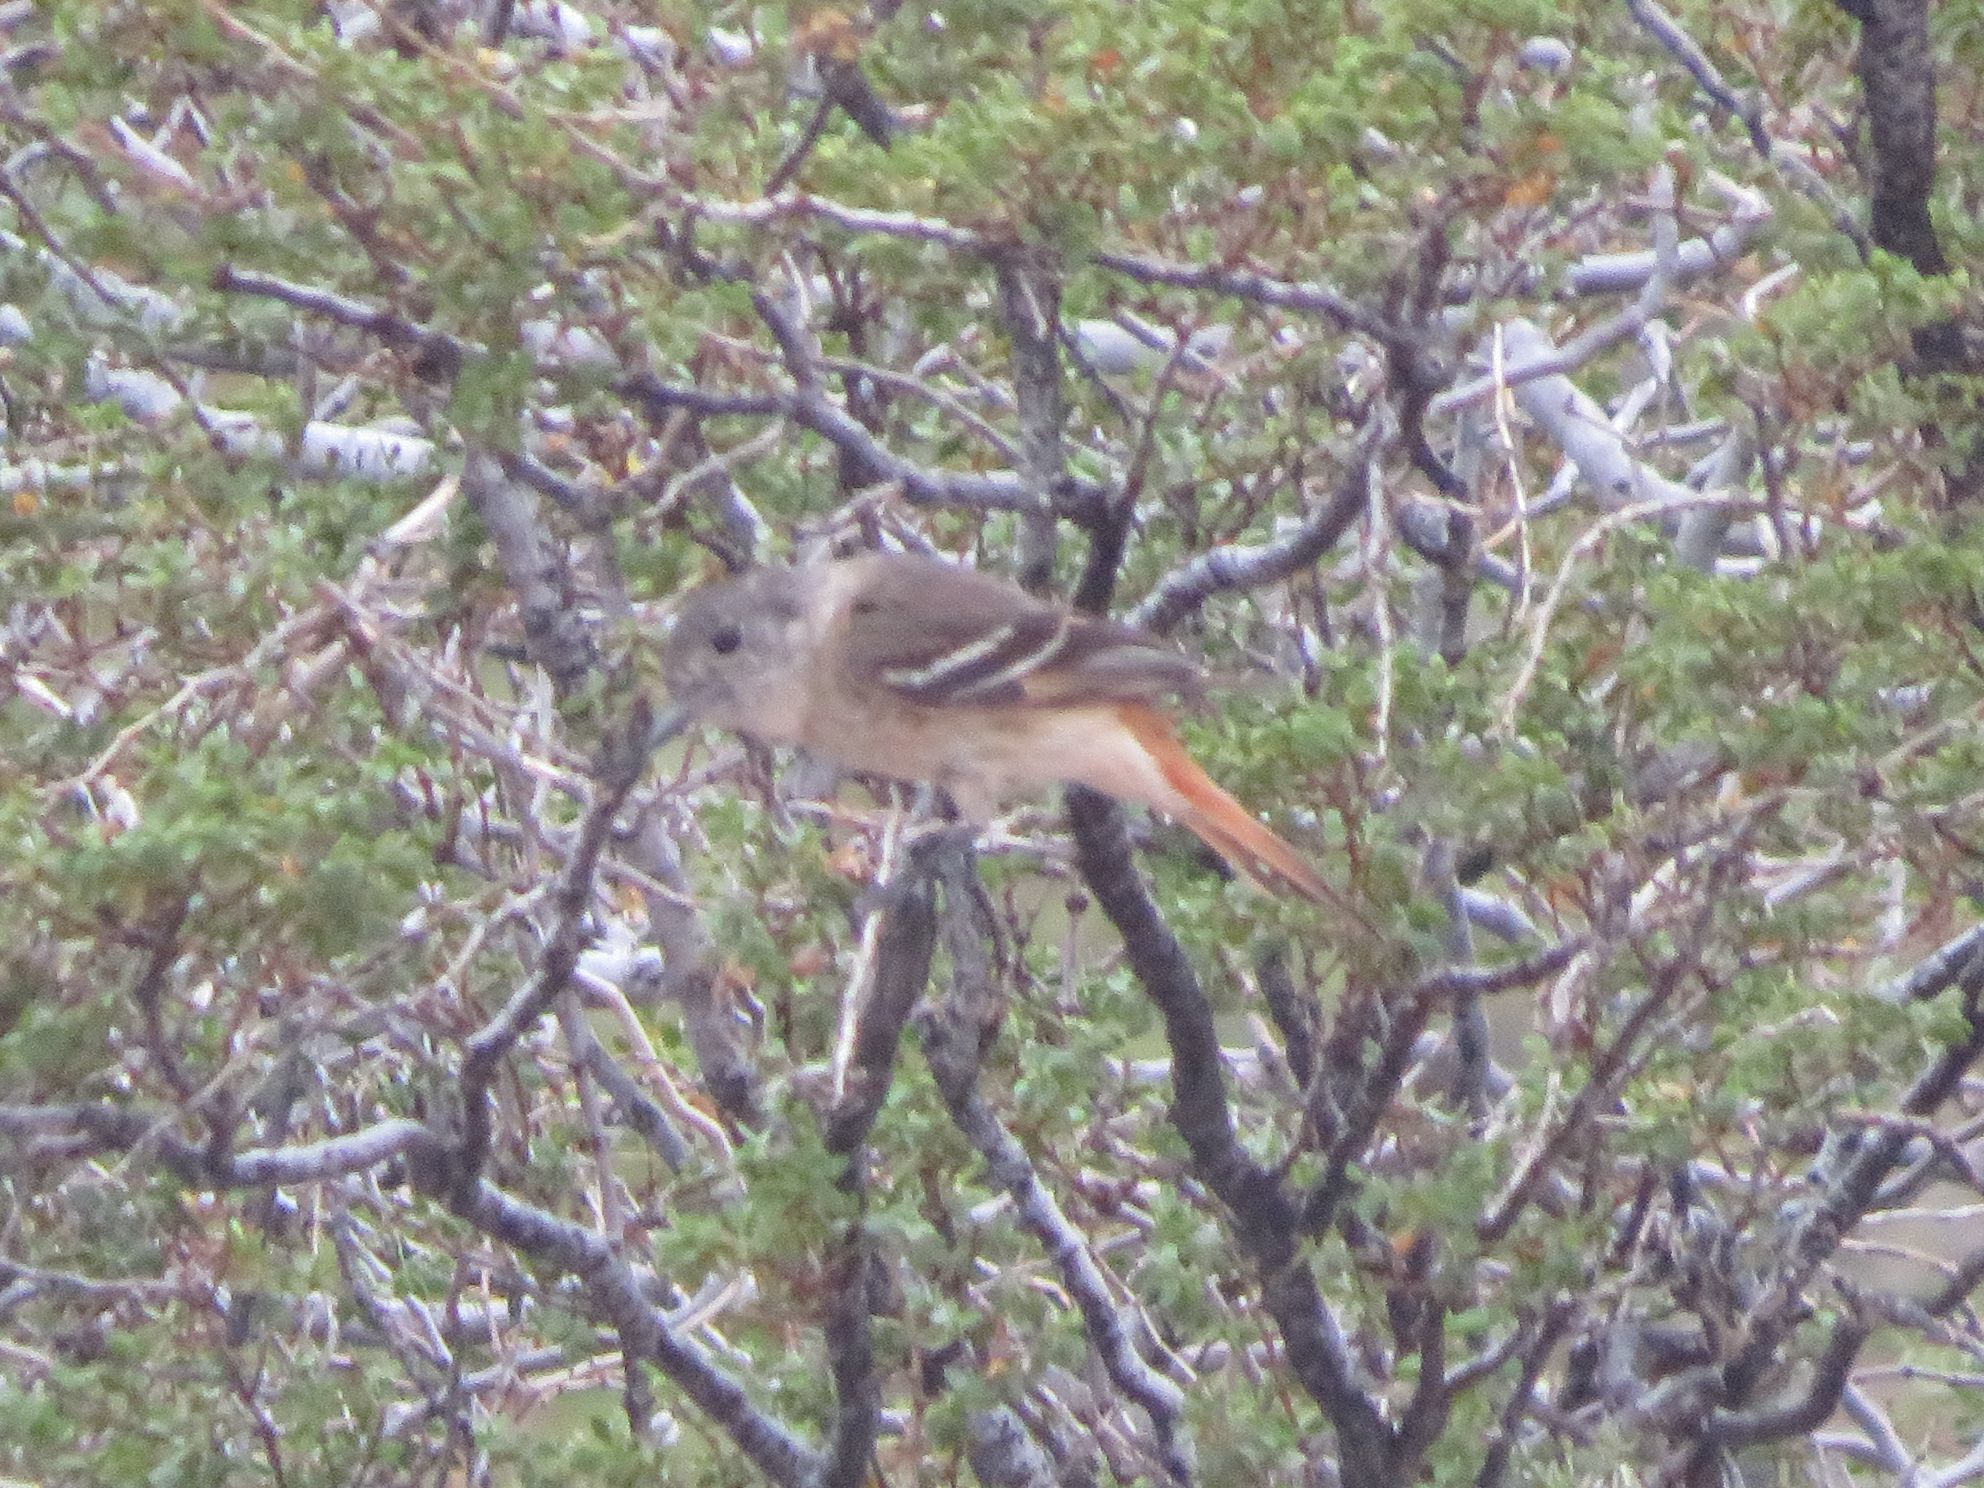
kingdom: Animalia
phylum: Chordata
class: Aves
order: Passeriformes
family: Tyrannidae
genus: Knipolegus
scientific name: Knipolegus aterrimus
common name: White-winged black tyrant
